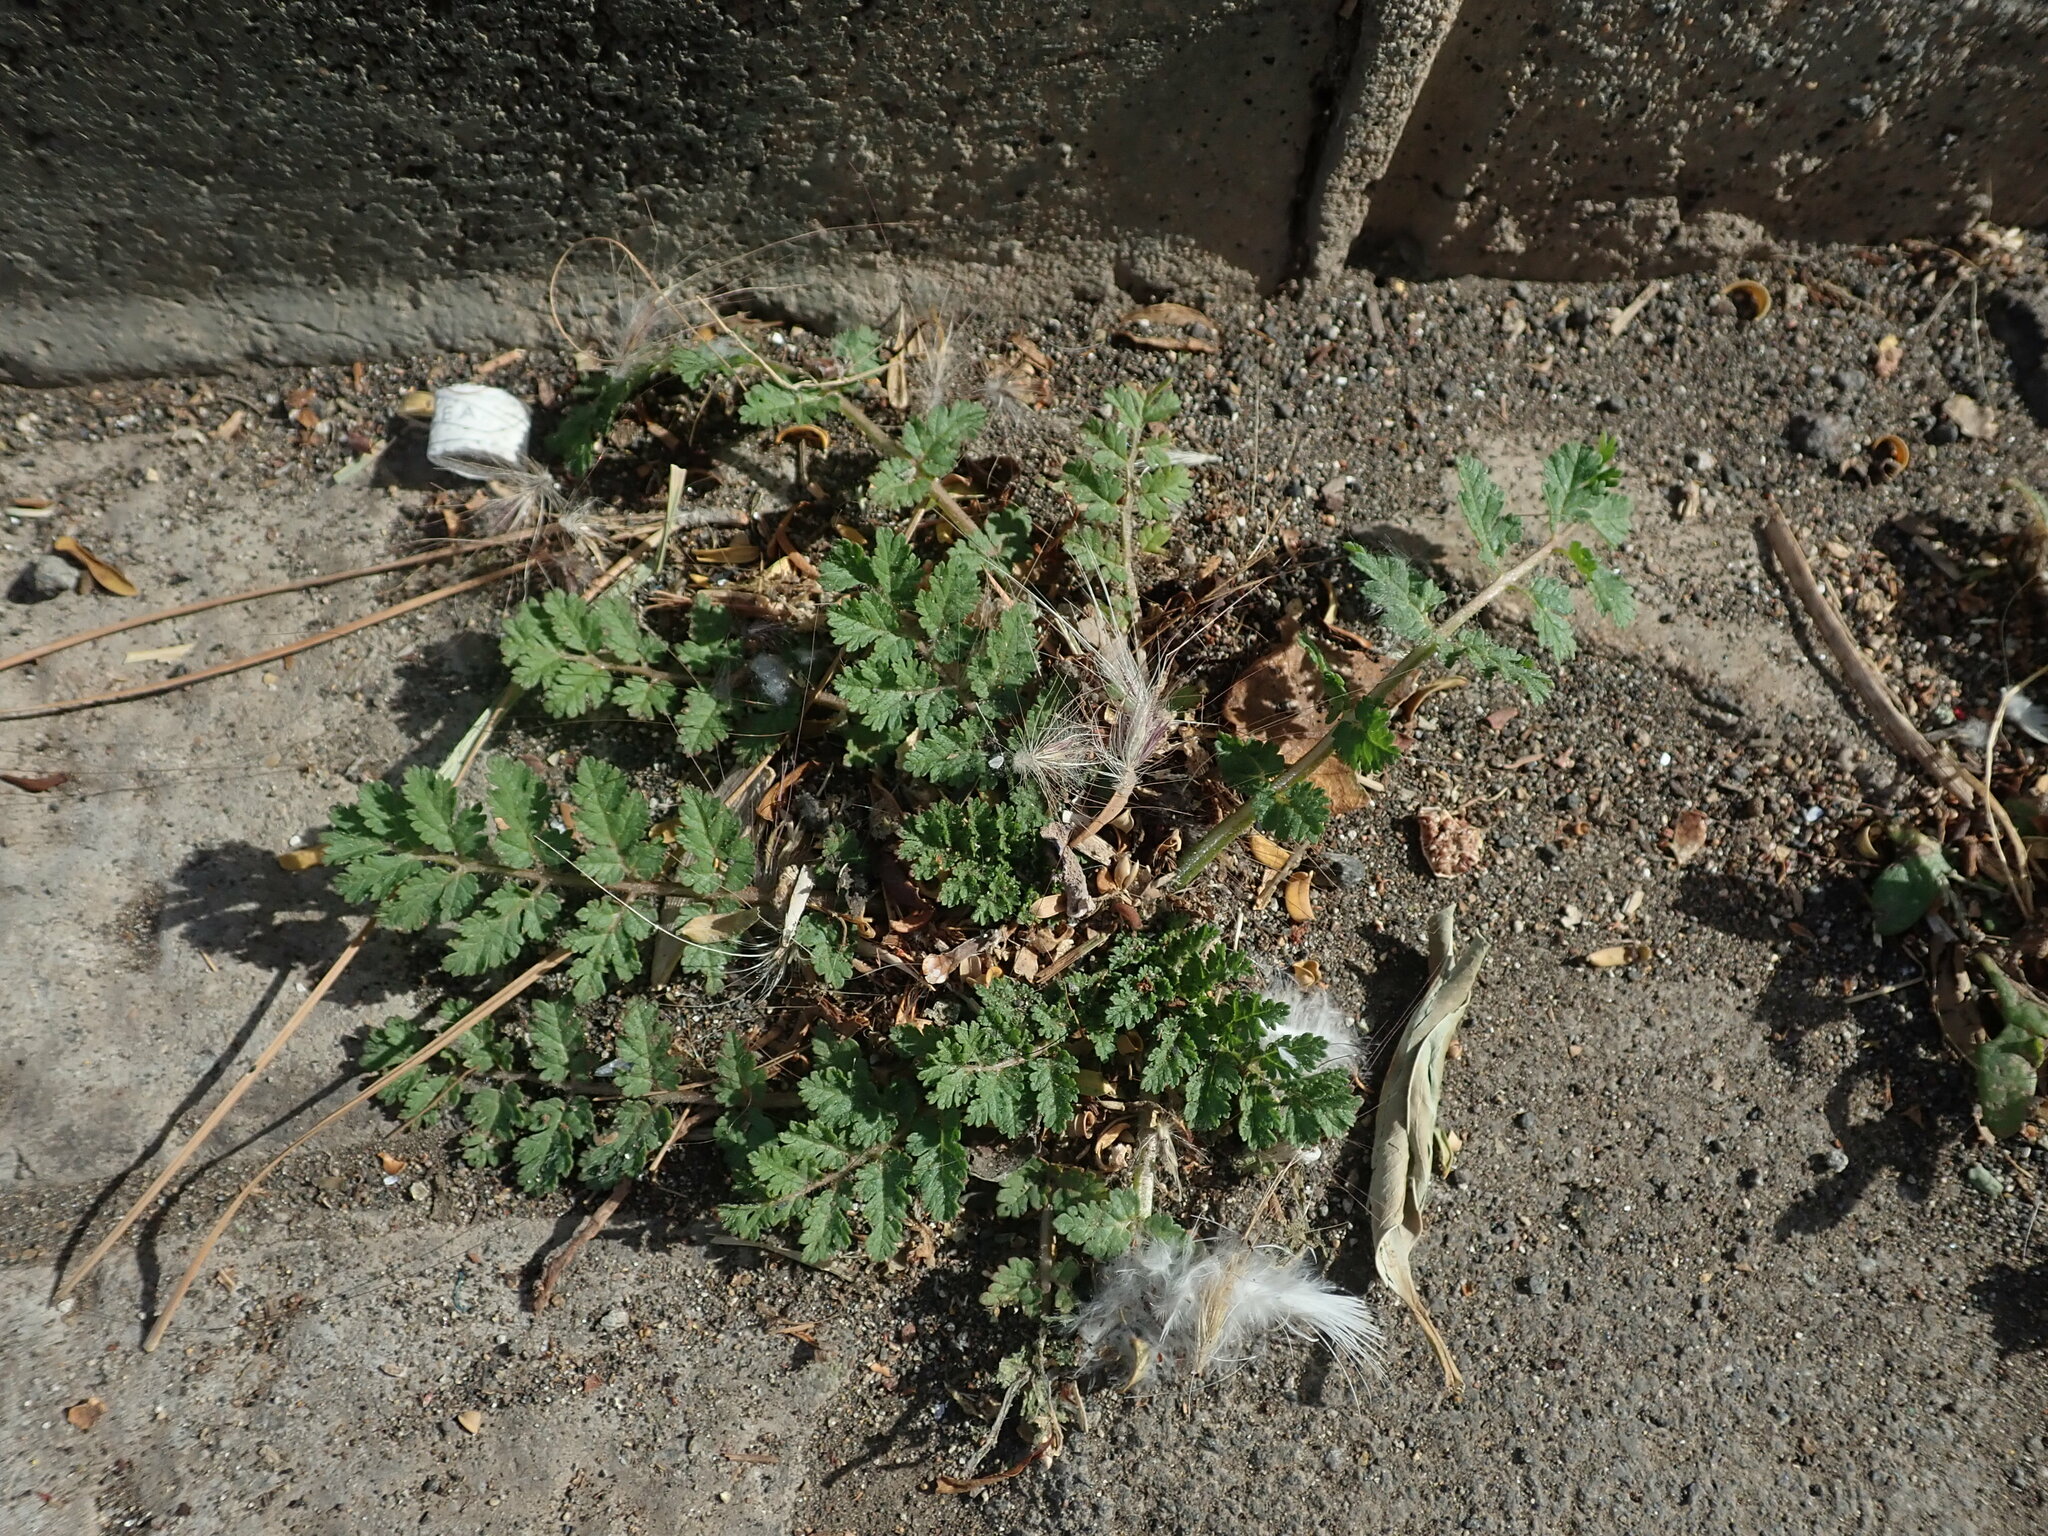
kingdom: Plantae
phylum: Tracheophyta
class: Magnoliopsida
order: Geraniales
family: Geraniaceae
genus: Erodium
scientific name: Erodium moschatum
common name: Musk stork's-bill
